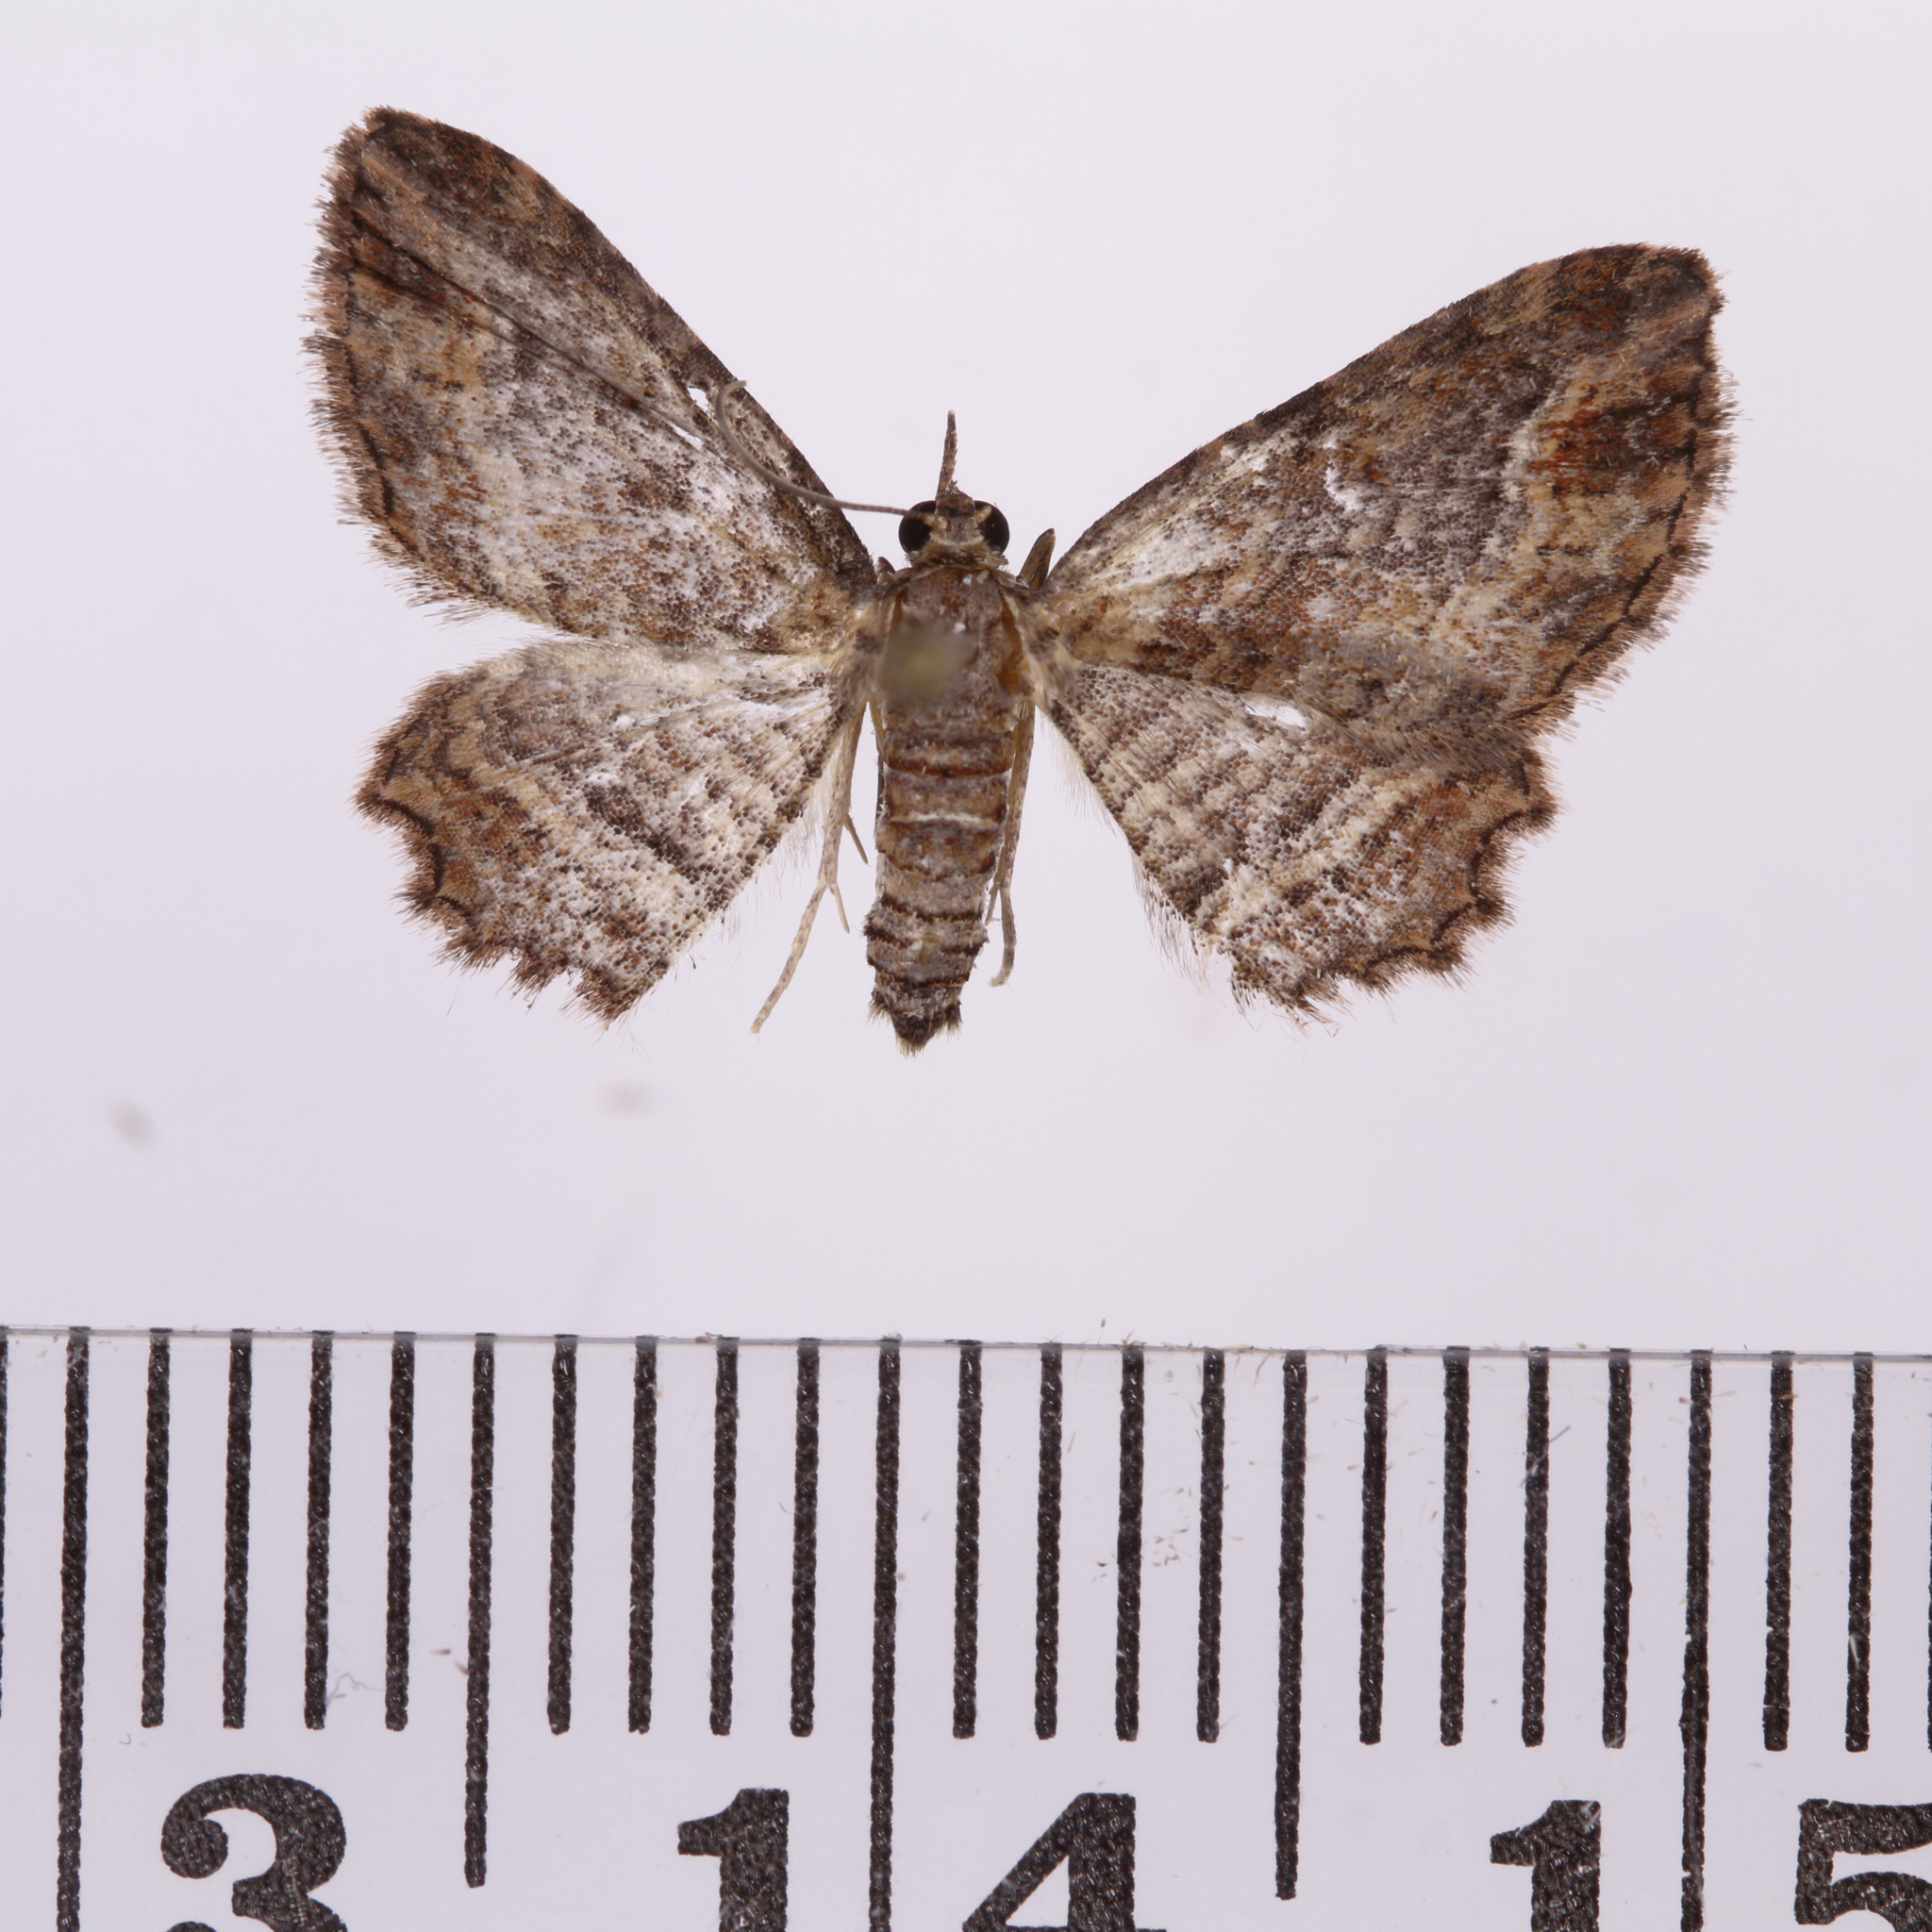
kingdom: Animalia
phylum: Arthropoda
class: Insecta
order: Lepidoptera
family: Geometridae
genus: Chloroclystis
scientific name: Chloroclystis filata
